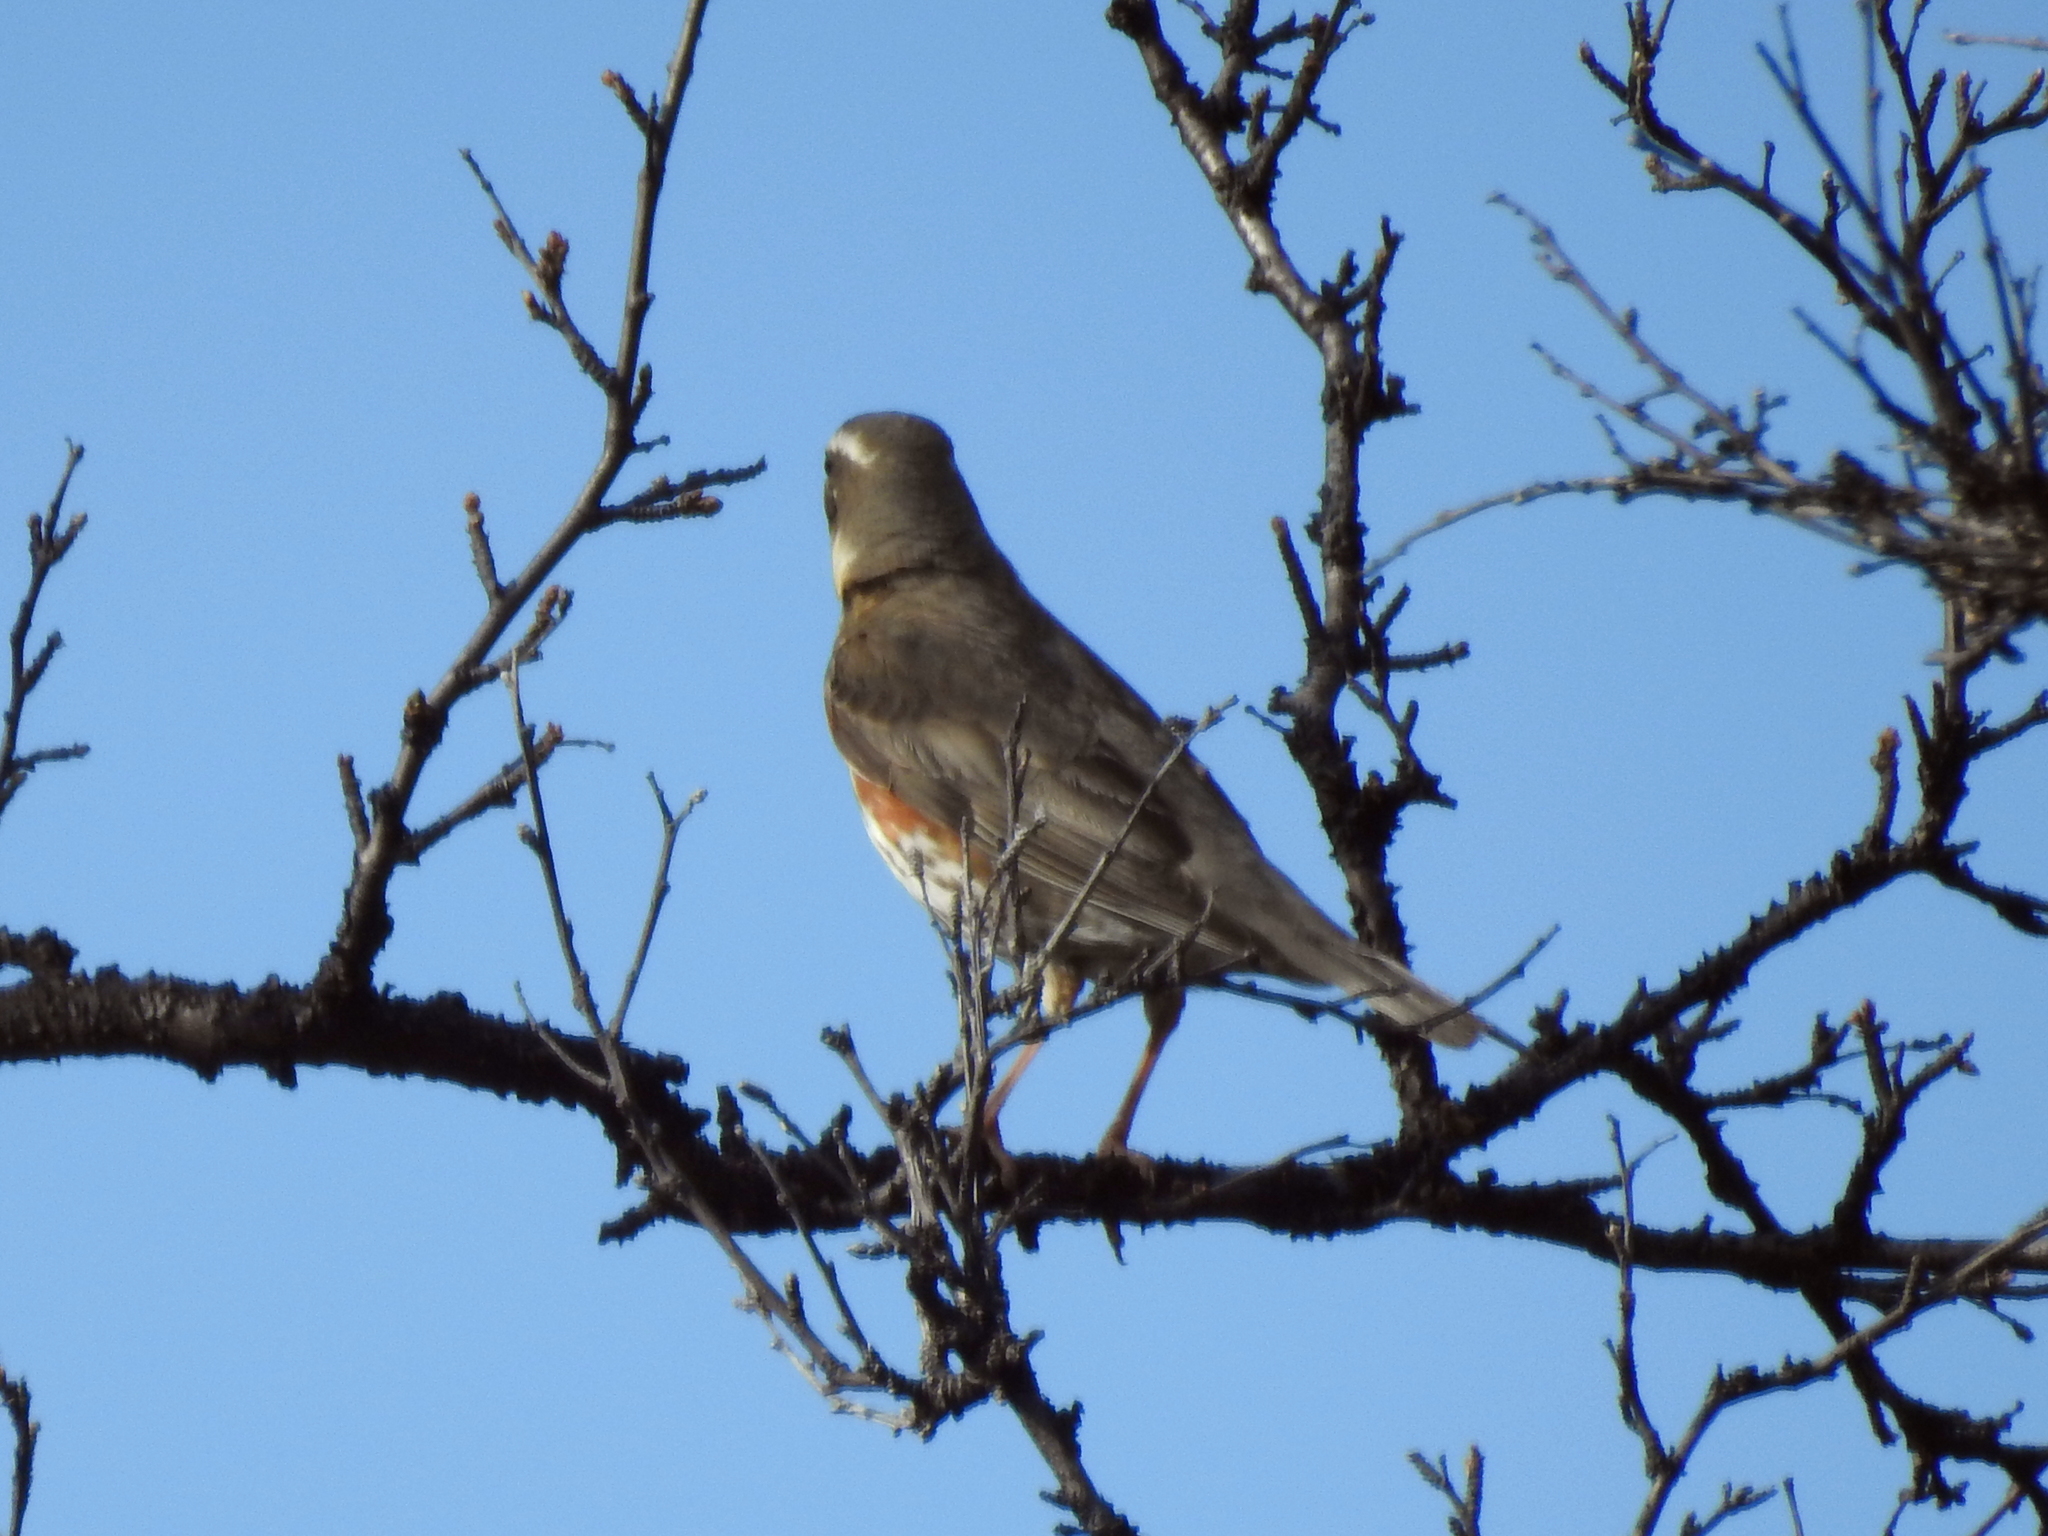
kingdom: Animalia
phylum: Chordata
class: Aves
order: Passeriformes
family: Turdidae
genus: Turdus
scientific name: Turdus iliacus
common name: Redwing
